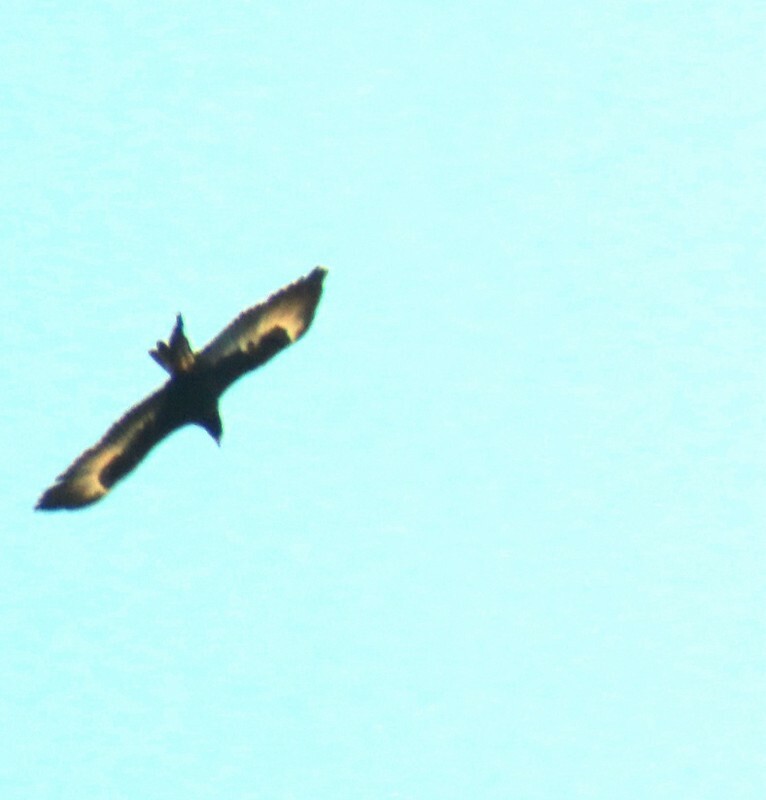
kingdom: Animalia
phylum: Chordata
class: Aves
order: Accipitriformes
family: Accipitridae
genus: Aquila
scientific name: Aquila audax
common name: Wedge-tailed eagle
